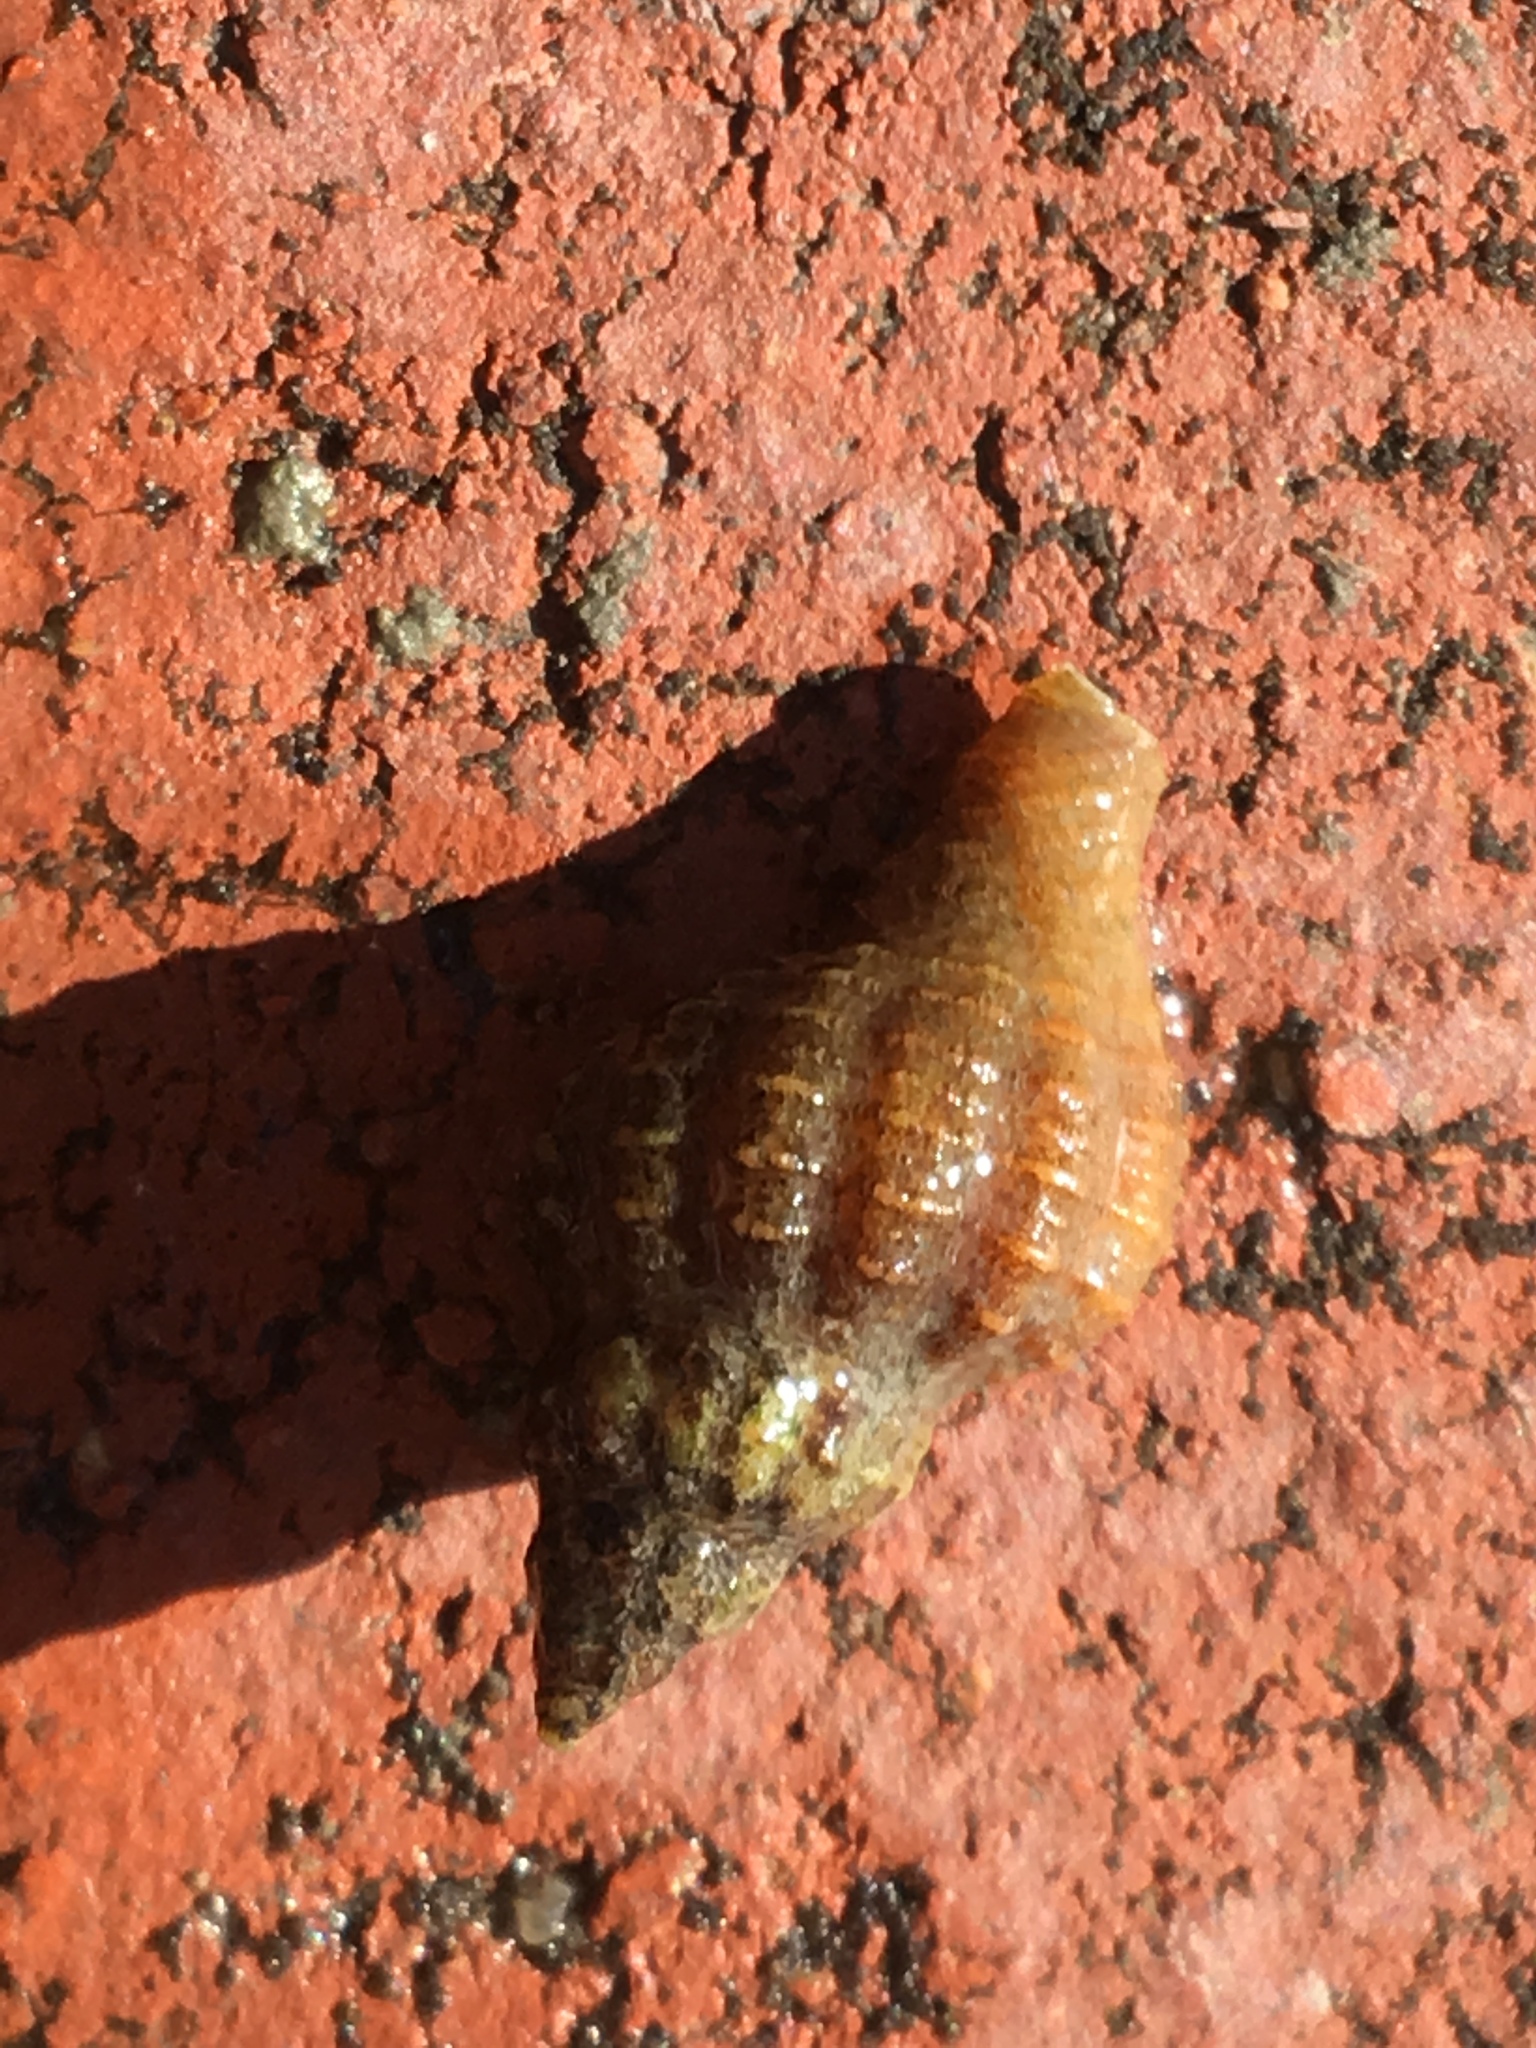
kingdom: Animalia
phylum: Mollusca
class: Gastropoda
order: Neogastropoda
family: Muricidae
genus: Urosalpinx
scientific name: Urosalpinx cinerea
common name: American sting winkle
